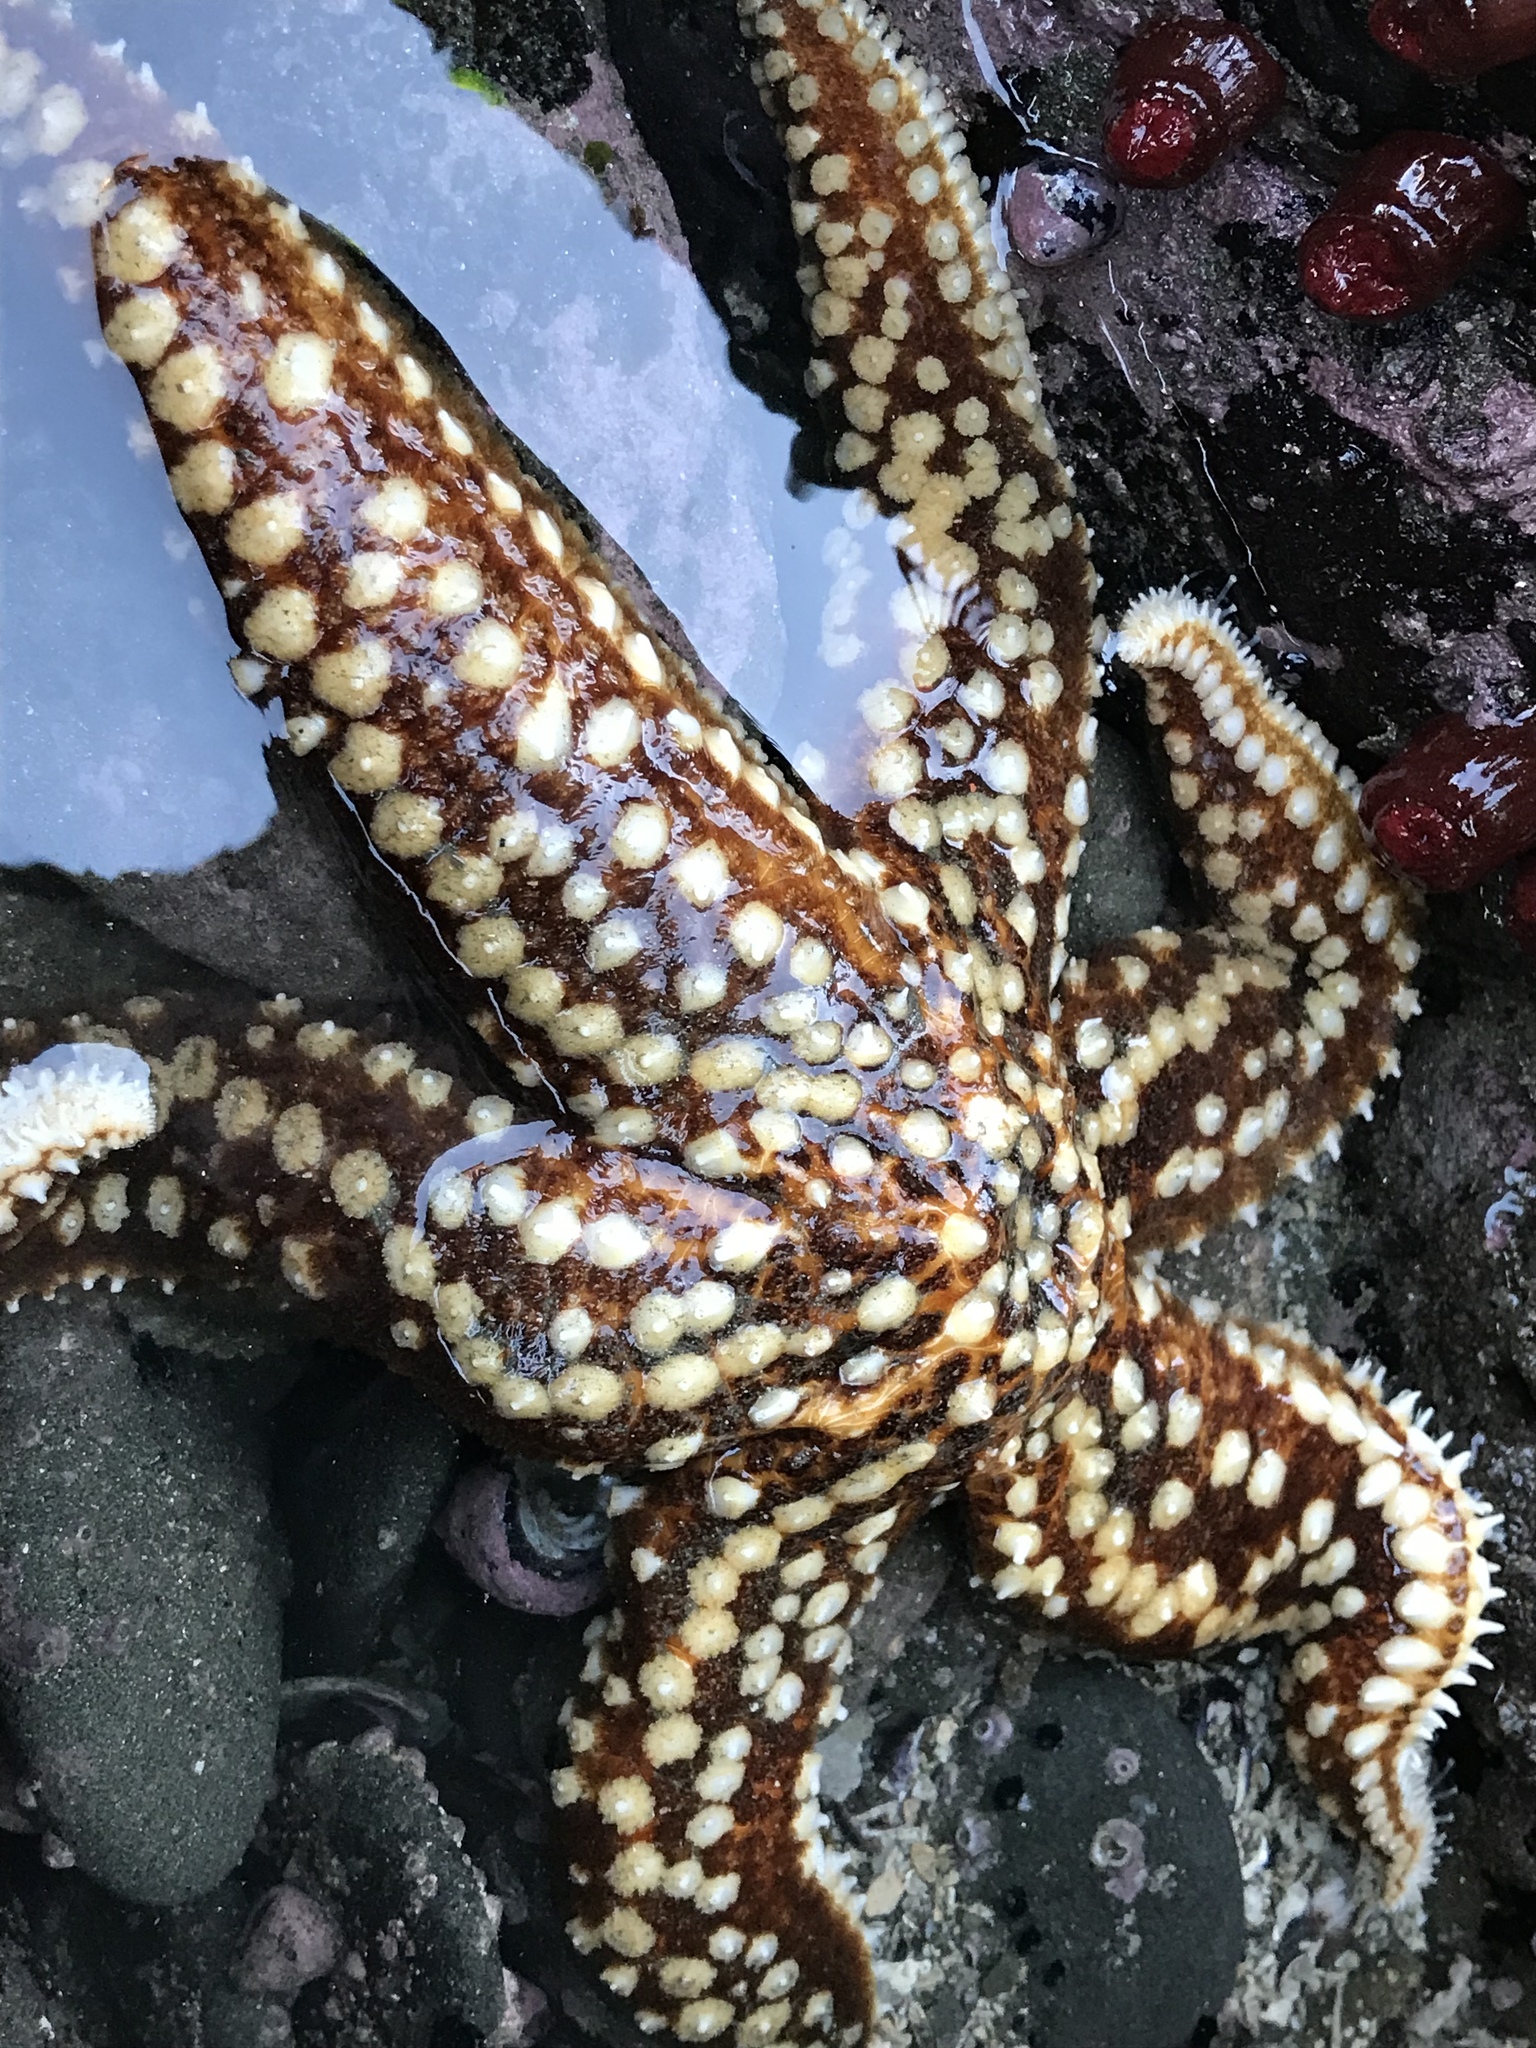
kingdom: Animalia
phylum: Echinodermata
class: Asteroidea
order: Forcipulatida
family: Asteriidae
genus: Meyenaster
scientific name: Meyenaster gelatinosus
